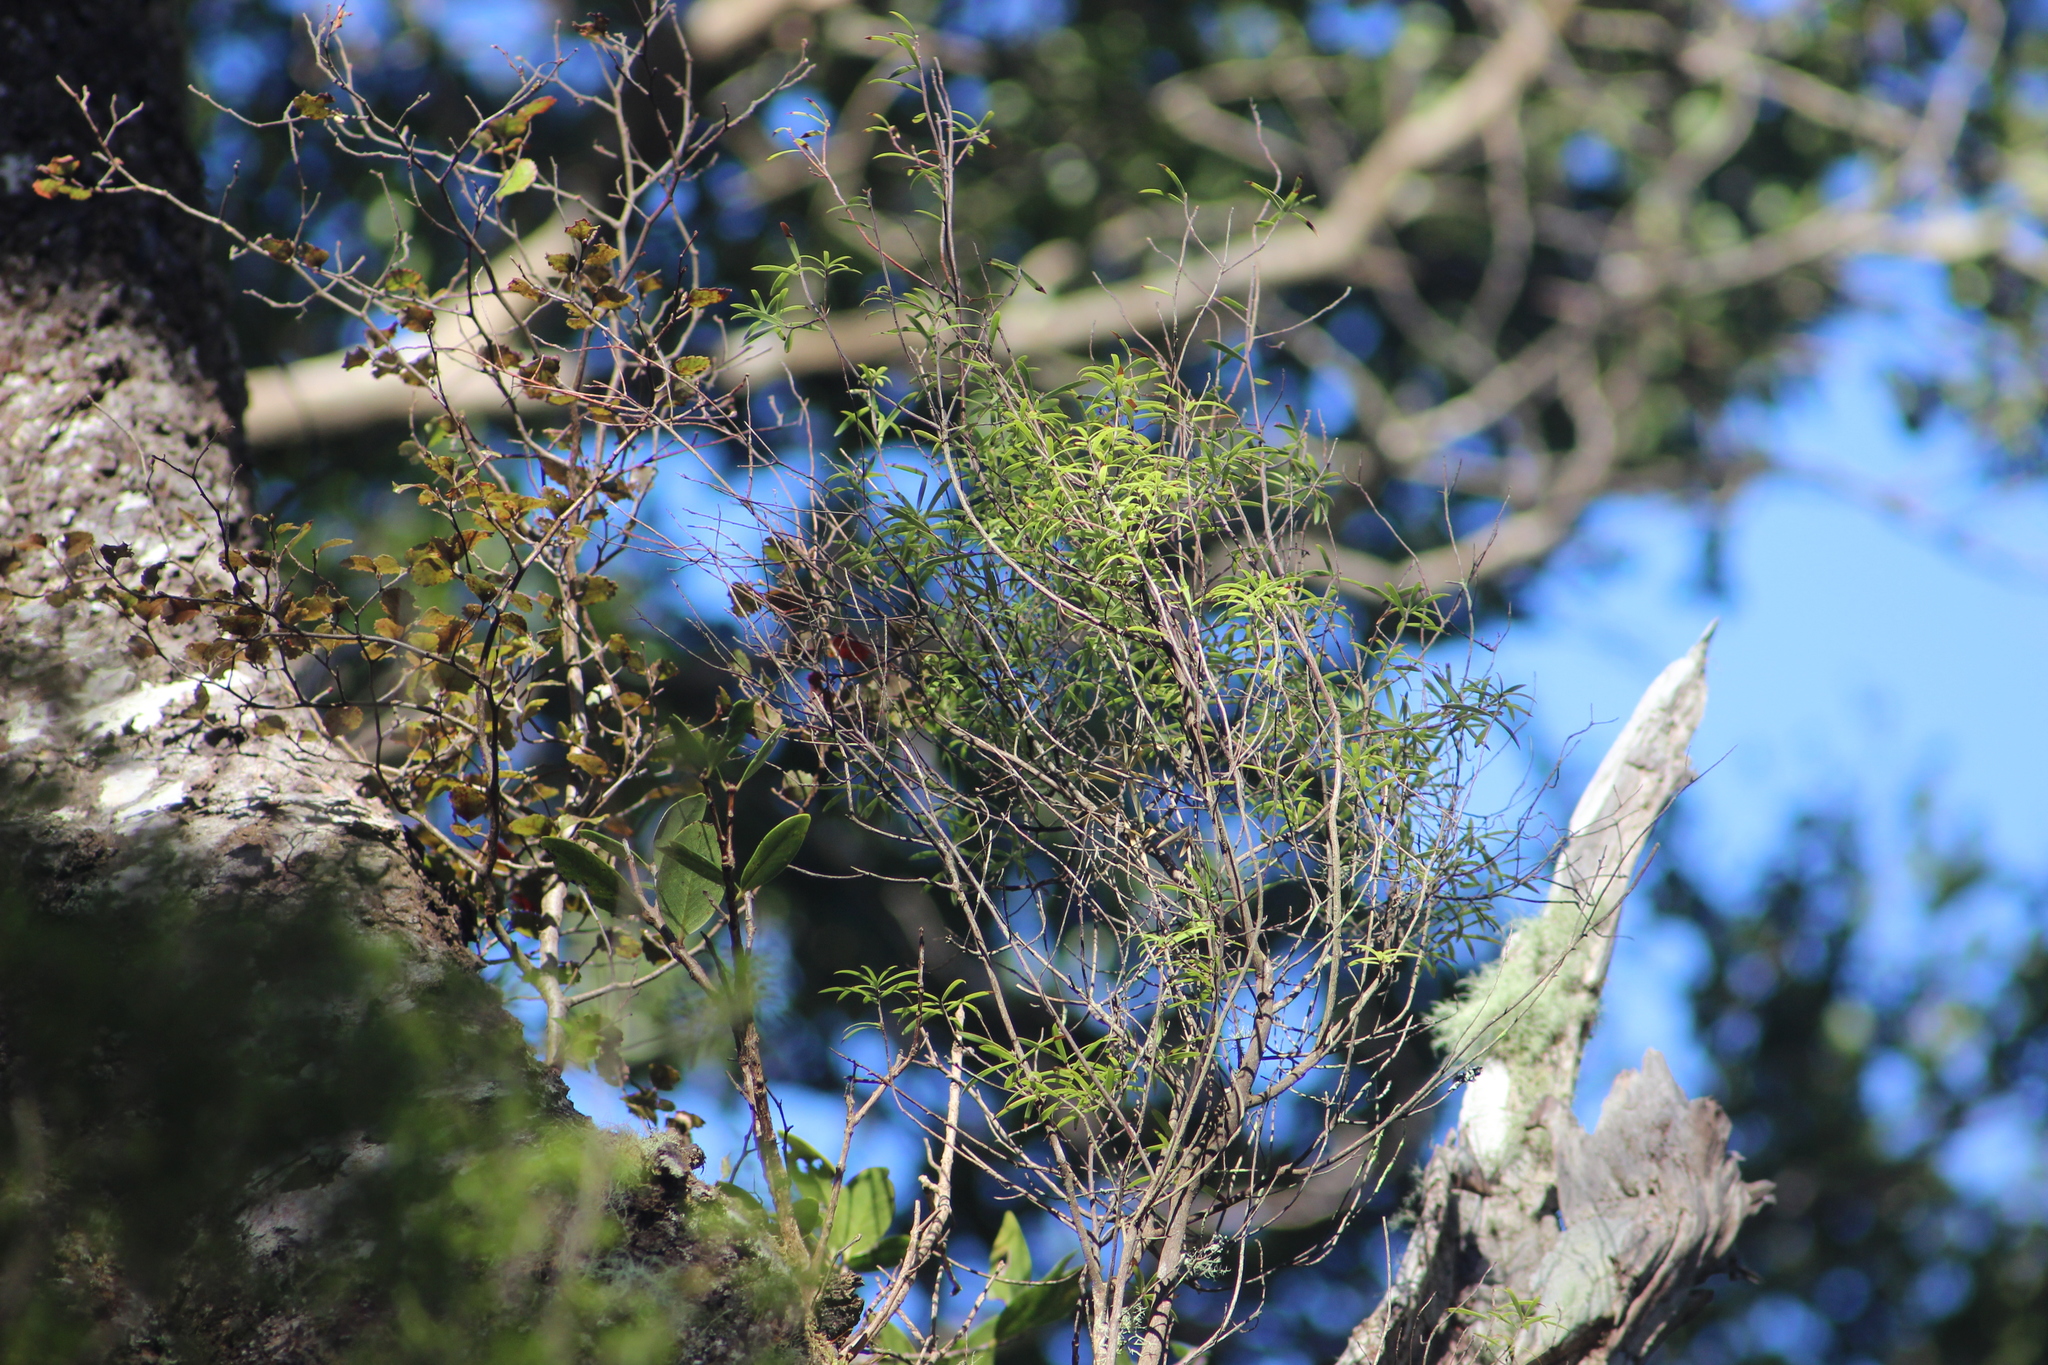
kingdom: Plantae
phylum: Tracheophyta
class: Magnoliopsida
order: Ericales
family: Ericaceae
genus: Leucopogon
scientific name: Leucopogon fasciculatus
